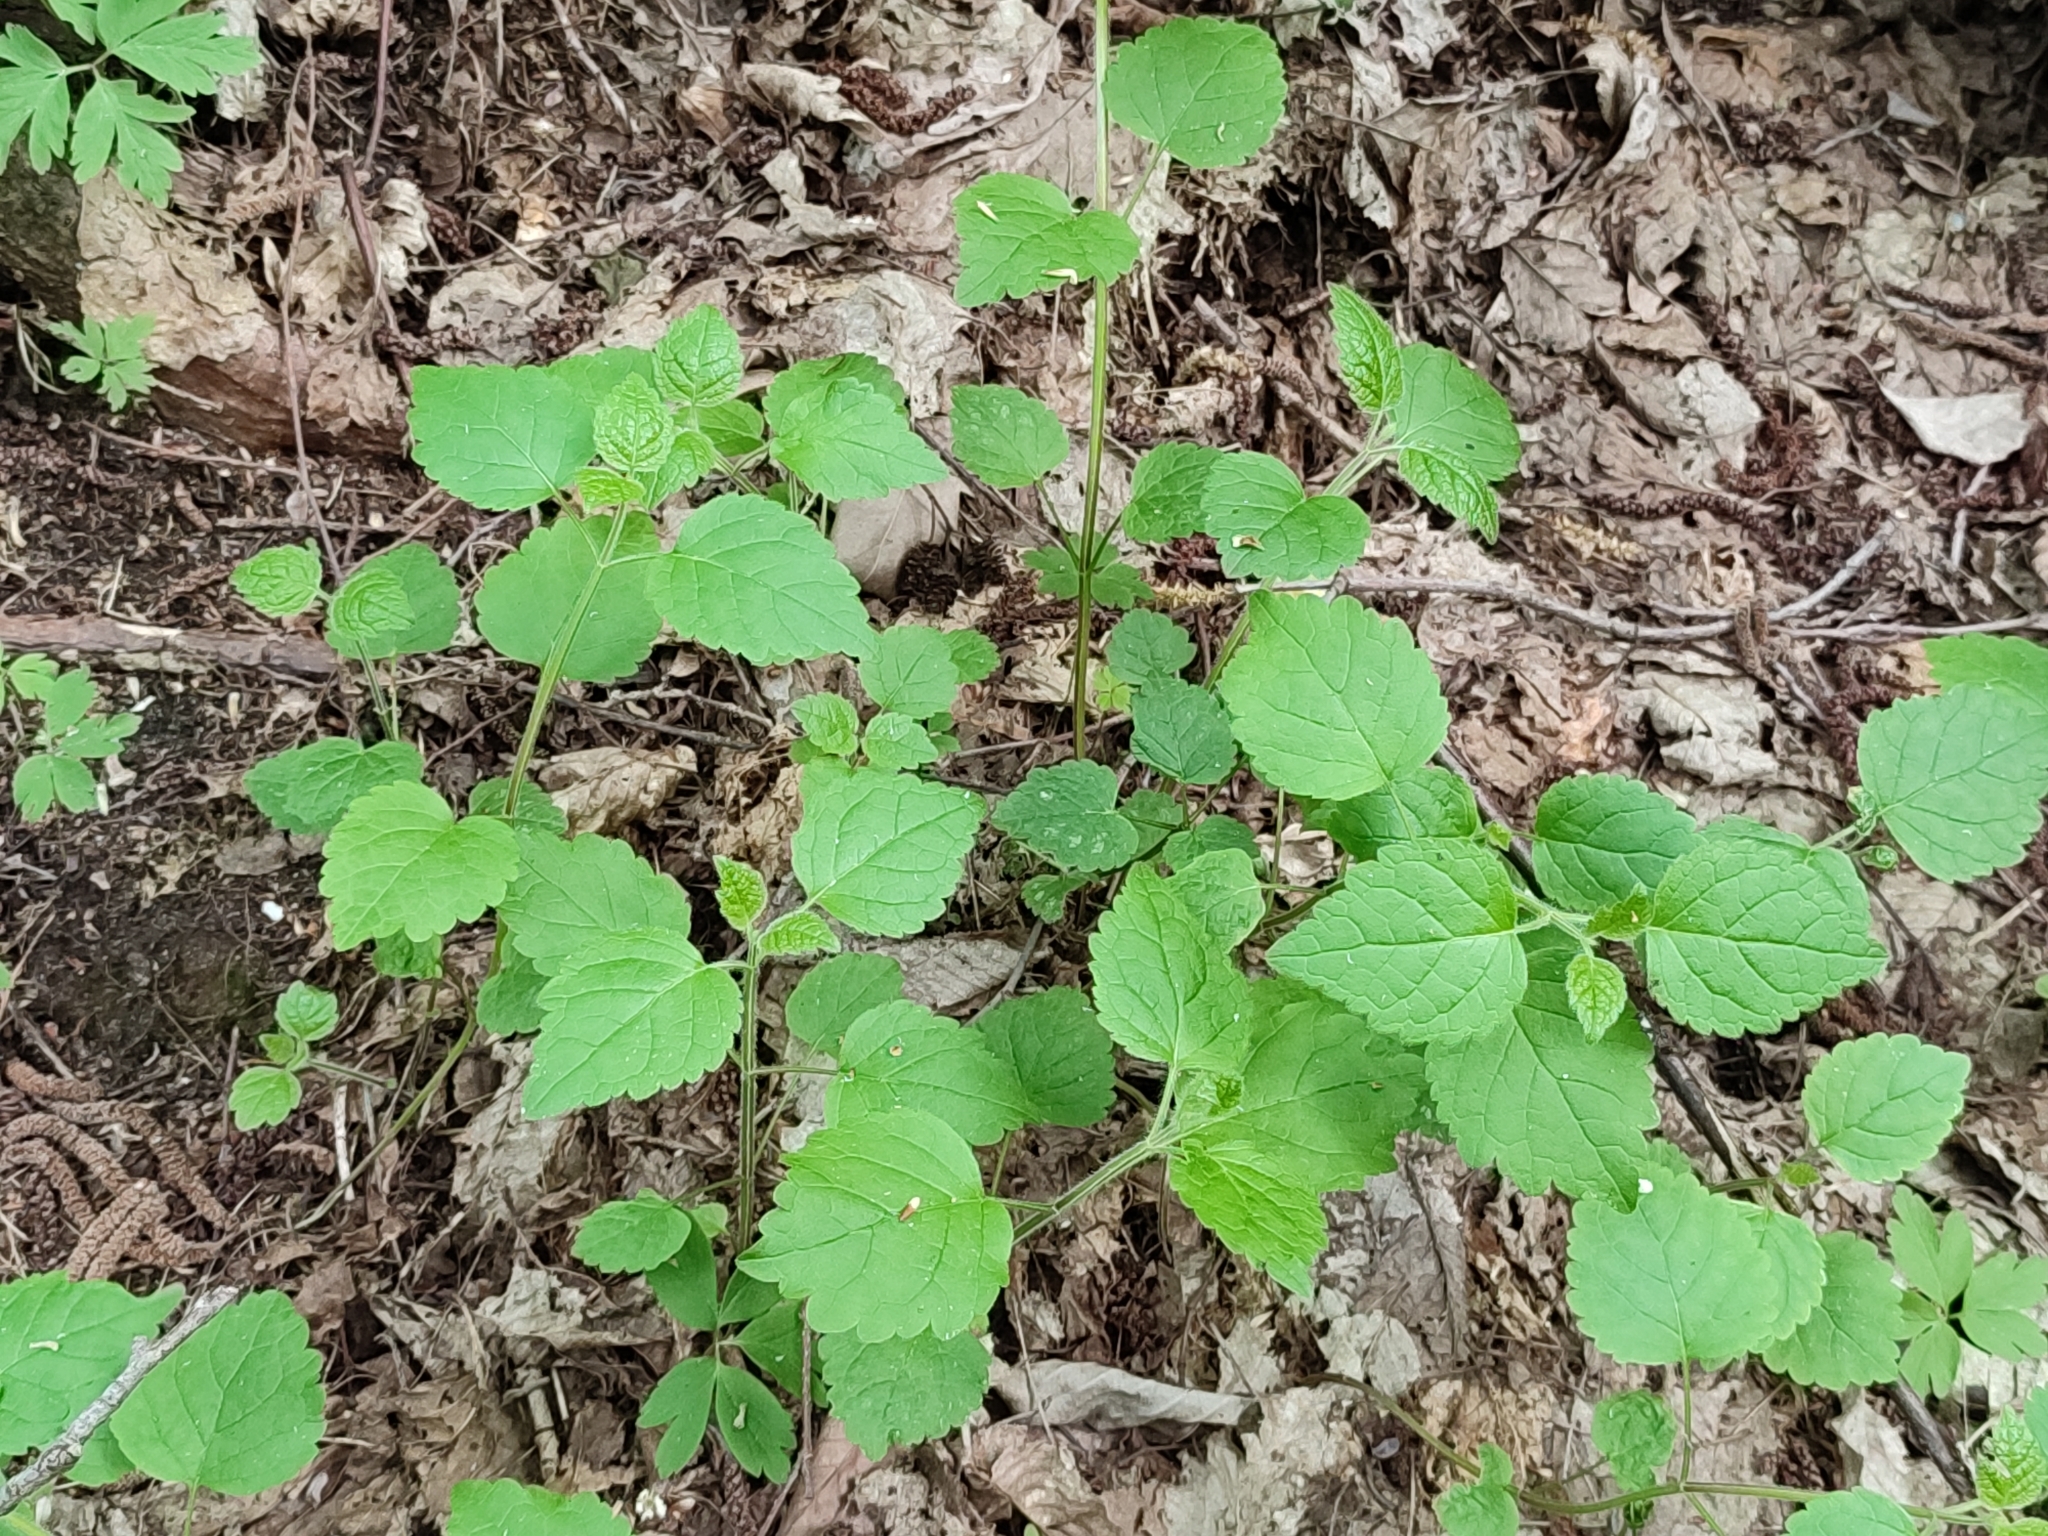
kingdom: Plantae
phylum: Tracheophyta
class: Magnoliopsida
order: Lamiales
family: Lamiaceae
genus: Lamium
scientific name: Lamium galeobdolon
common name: Yellow archangel
